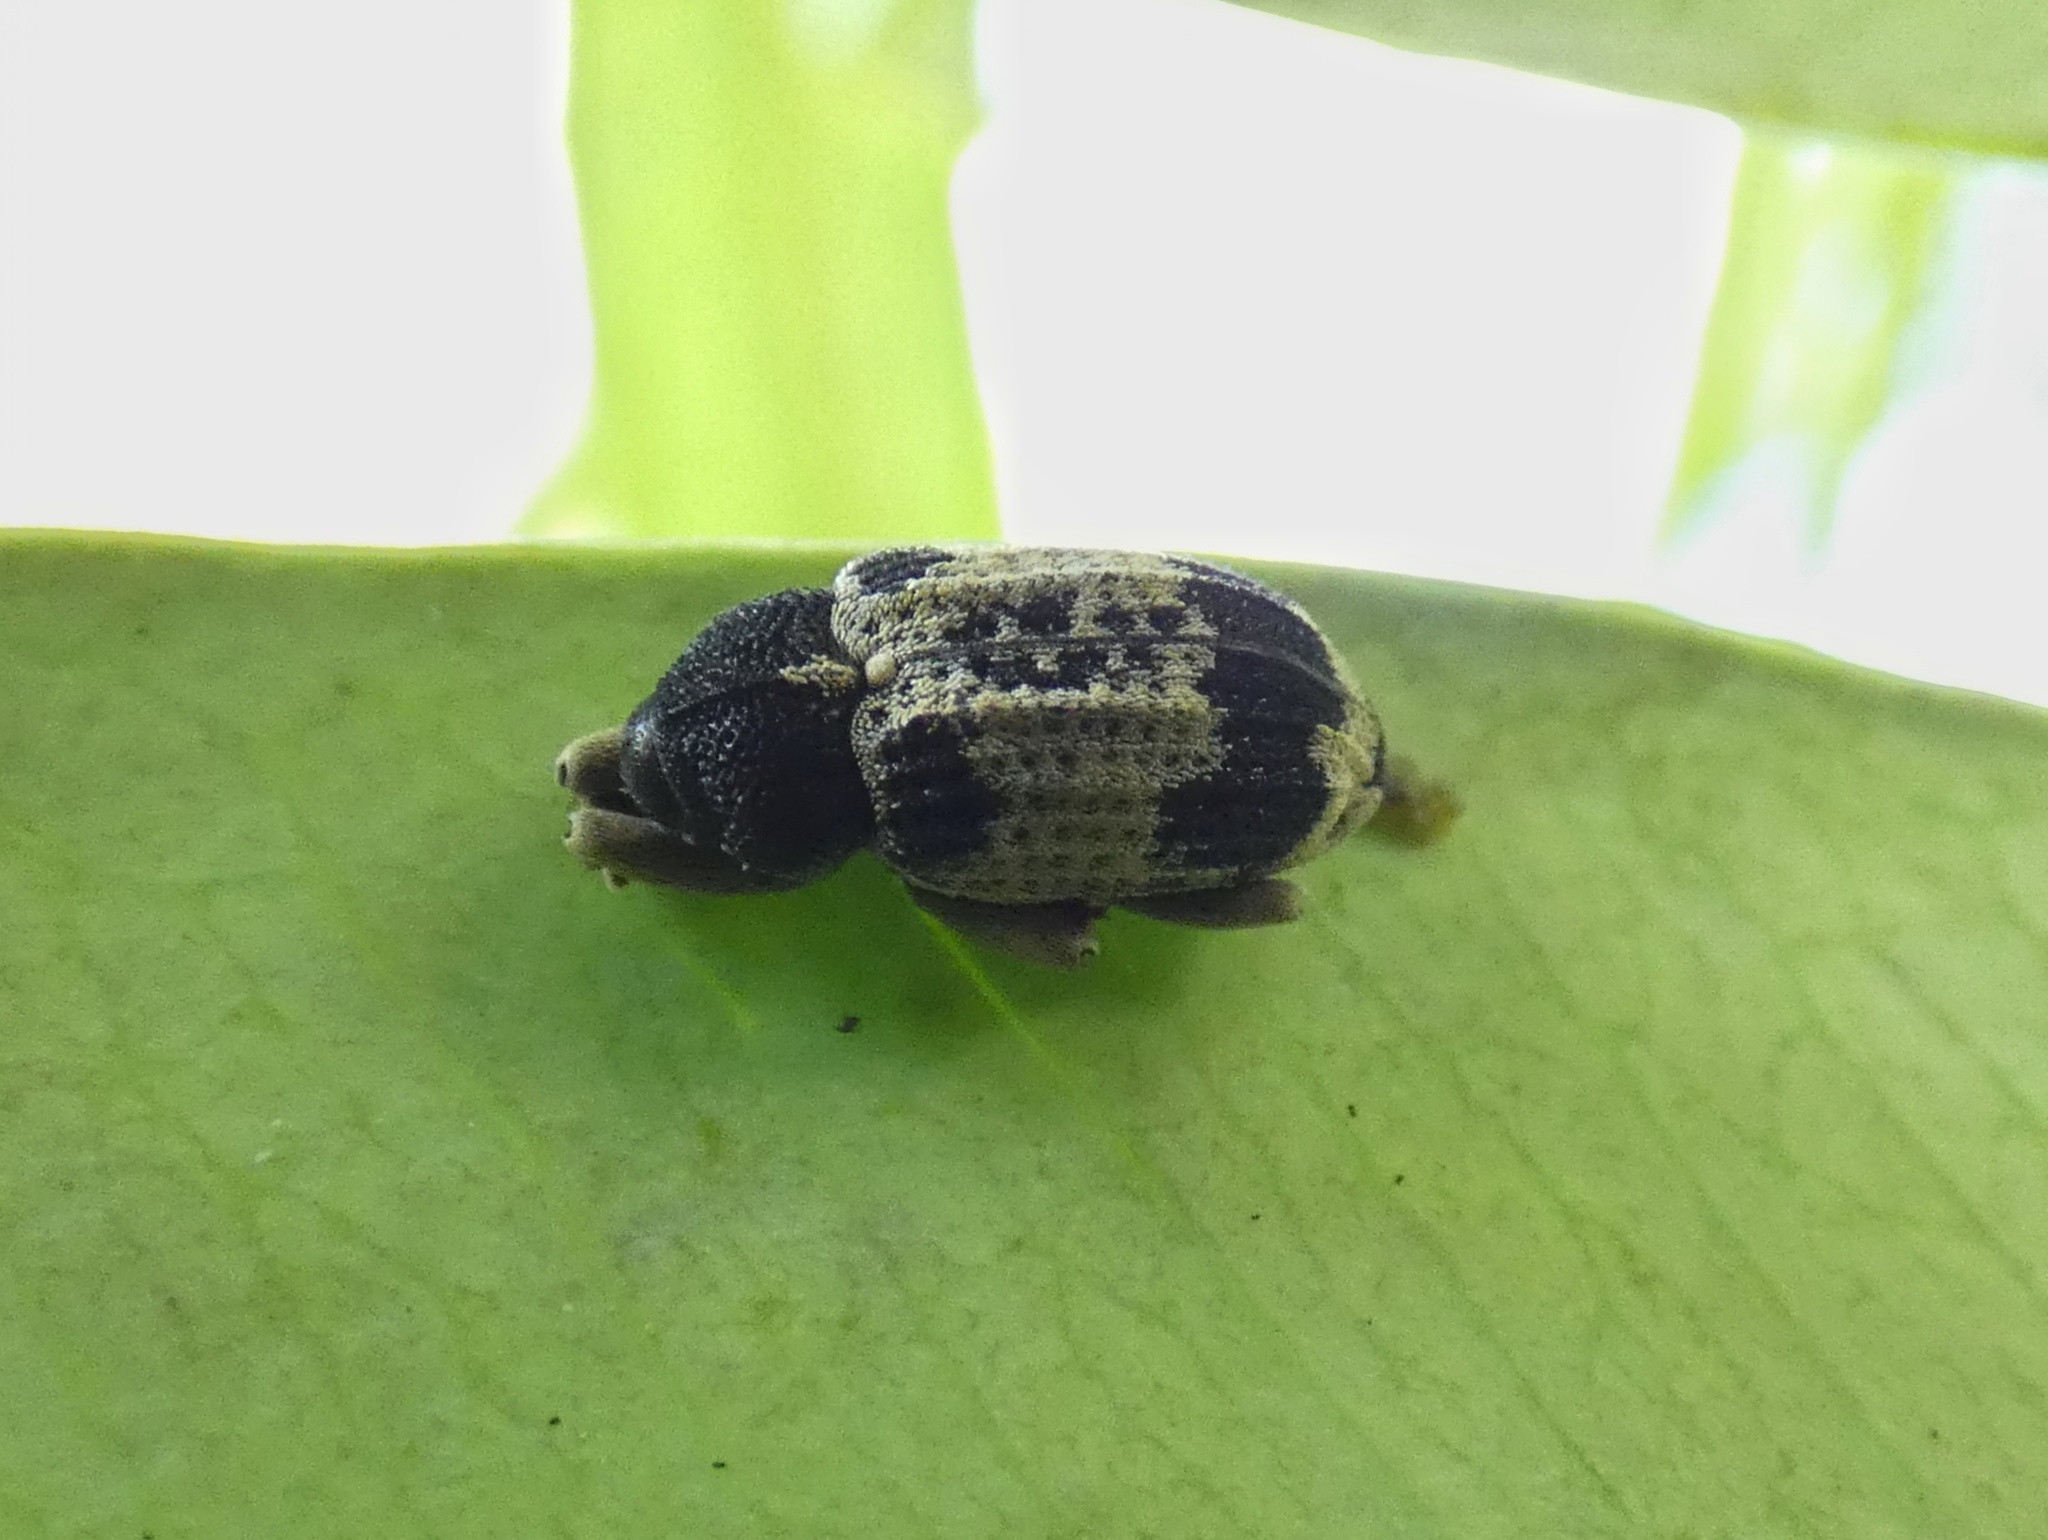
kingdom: Animalia
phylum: Arthropoda
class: Insecta
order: Coleoptera
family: Curculionidae
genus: Cryptorrhynchus
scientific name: Cryptorrhynchus oculus
